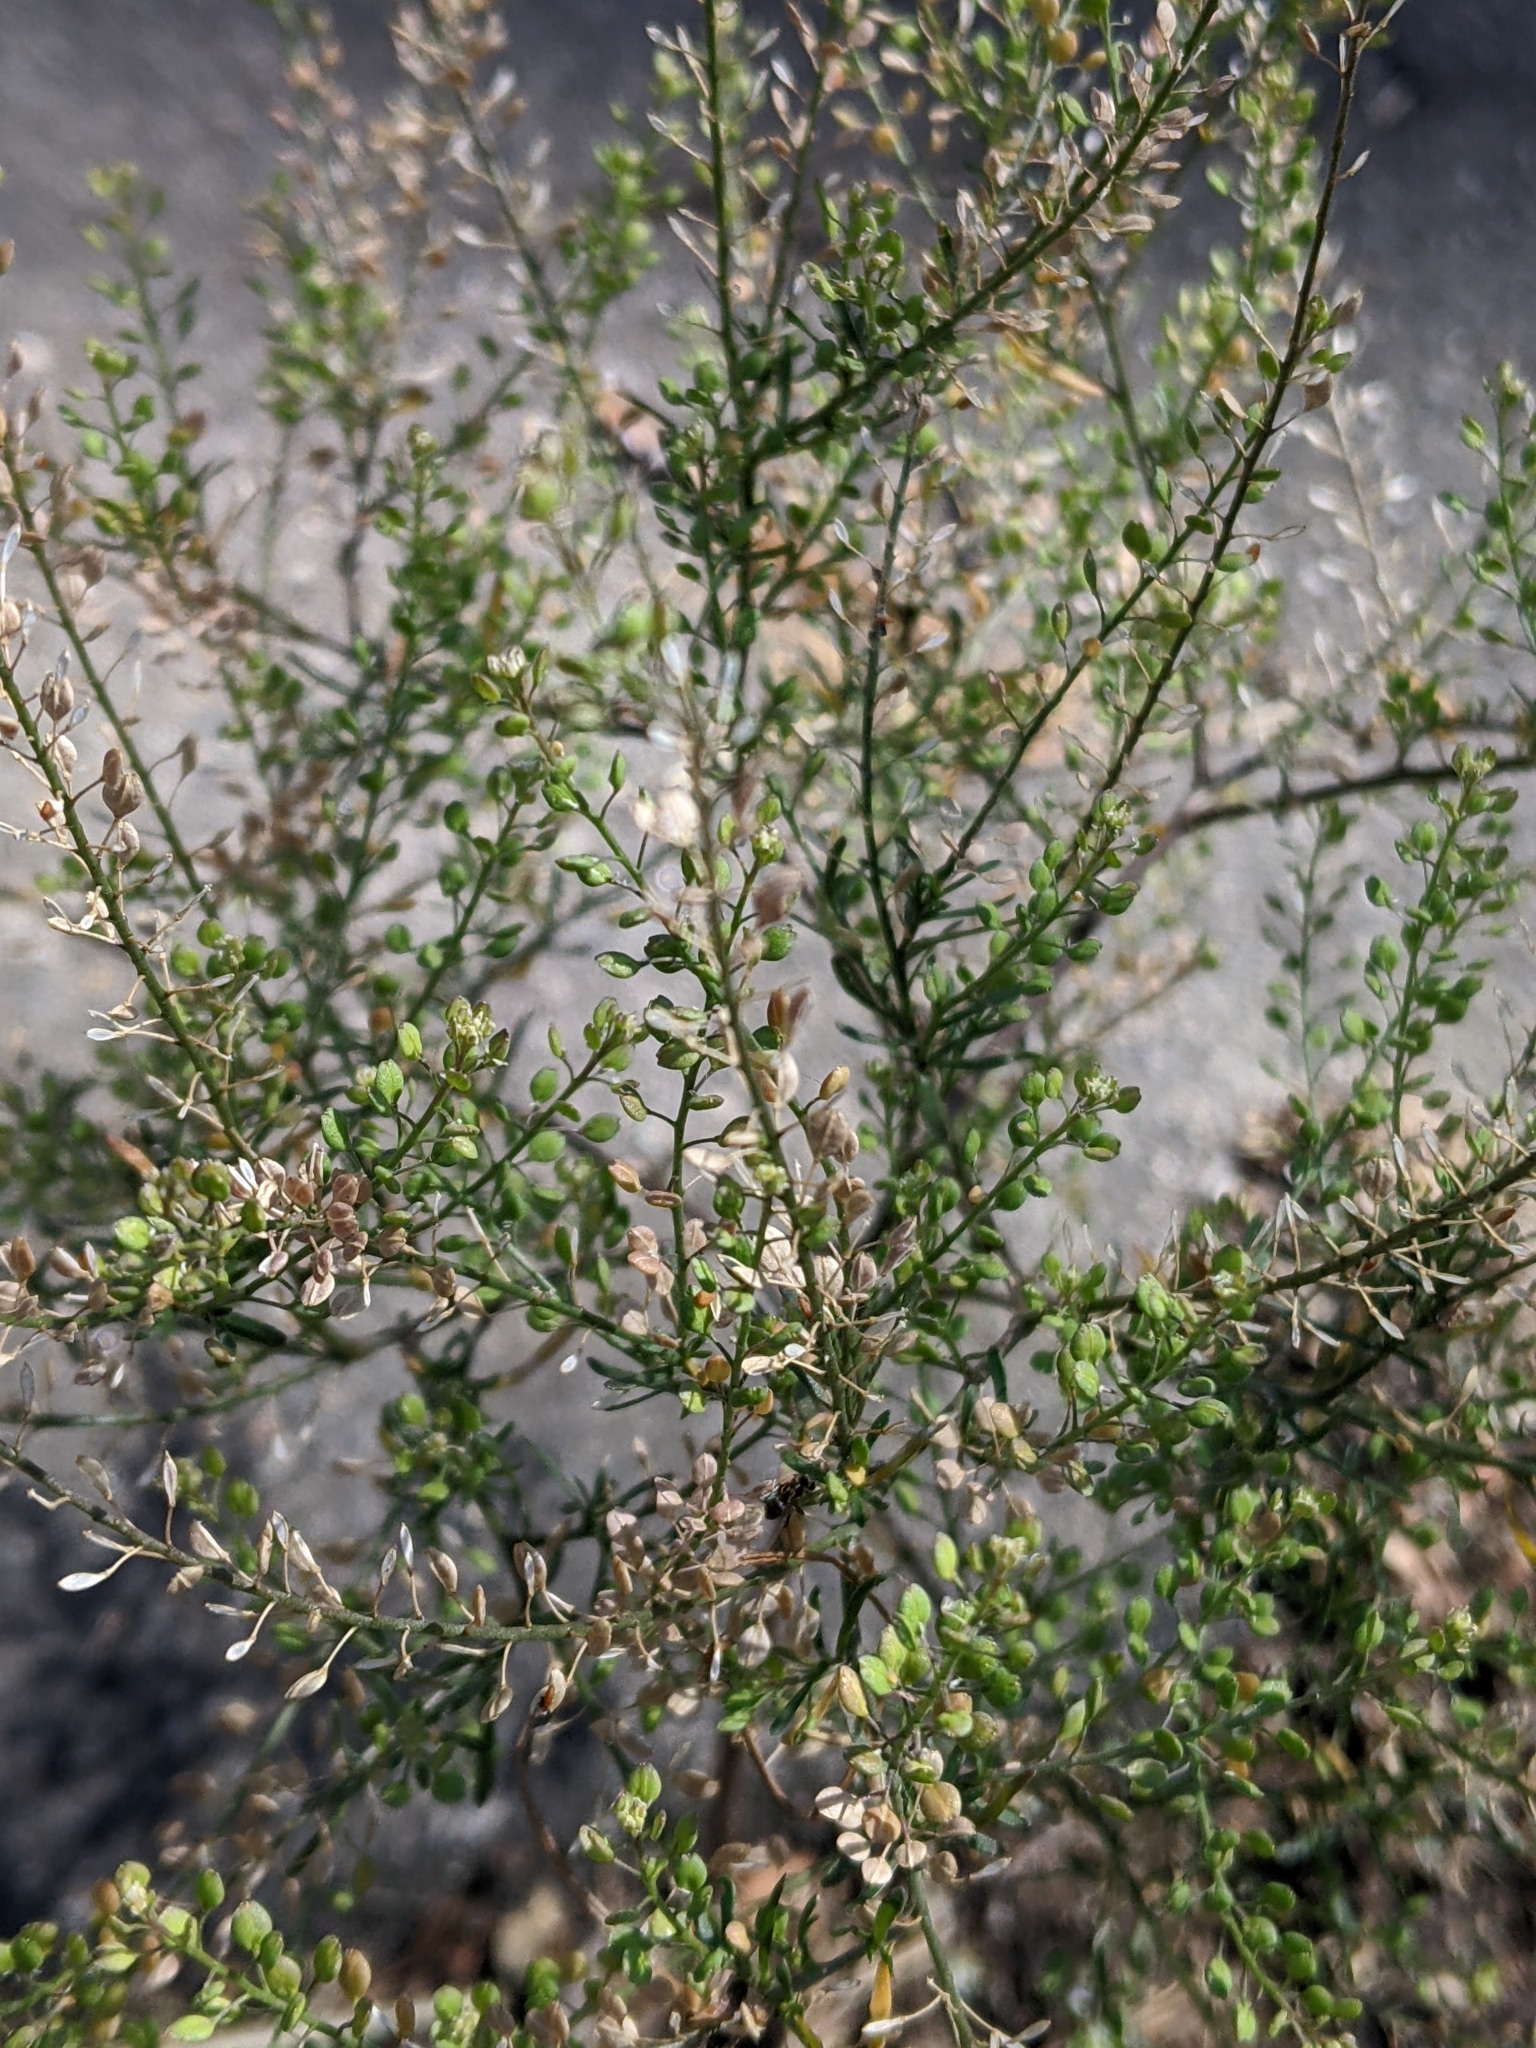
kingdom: Plantae
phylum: Tracheophyta
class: Magnoliopsida
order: Brassicales
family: Brassicaceae
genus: Lepidium
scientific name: Lepidium ruderale
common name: Narrow-leaved pepperwort
